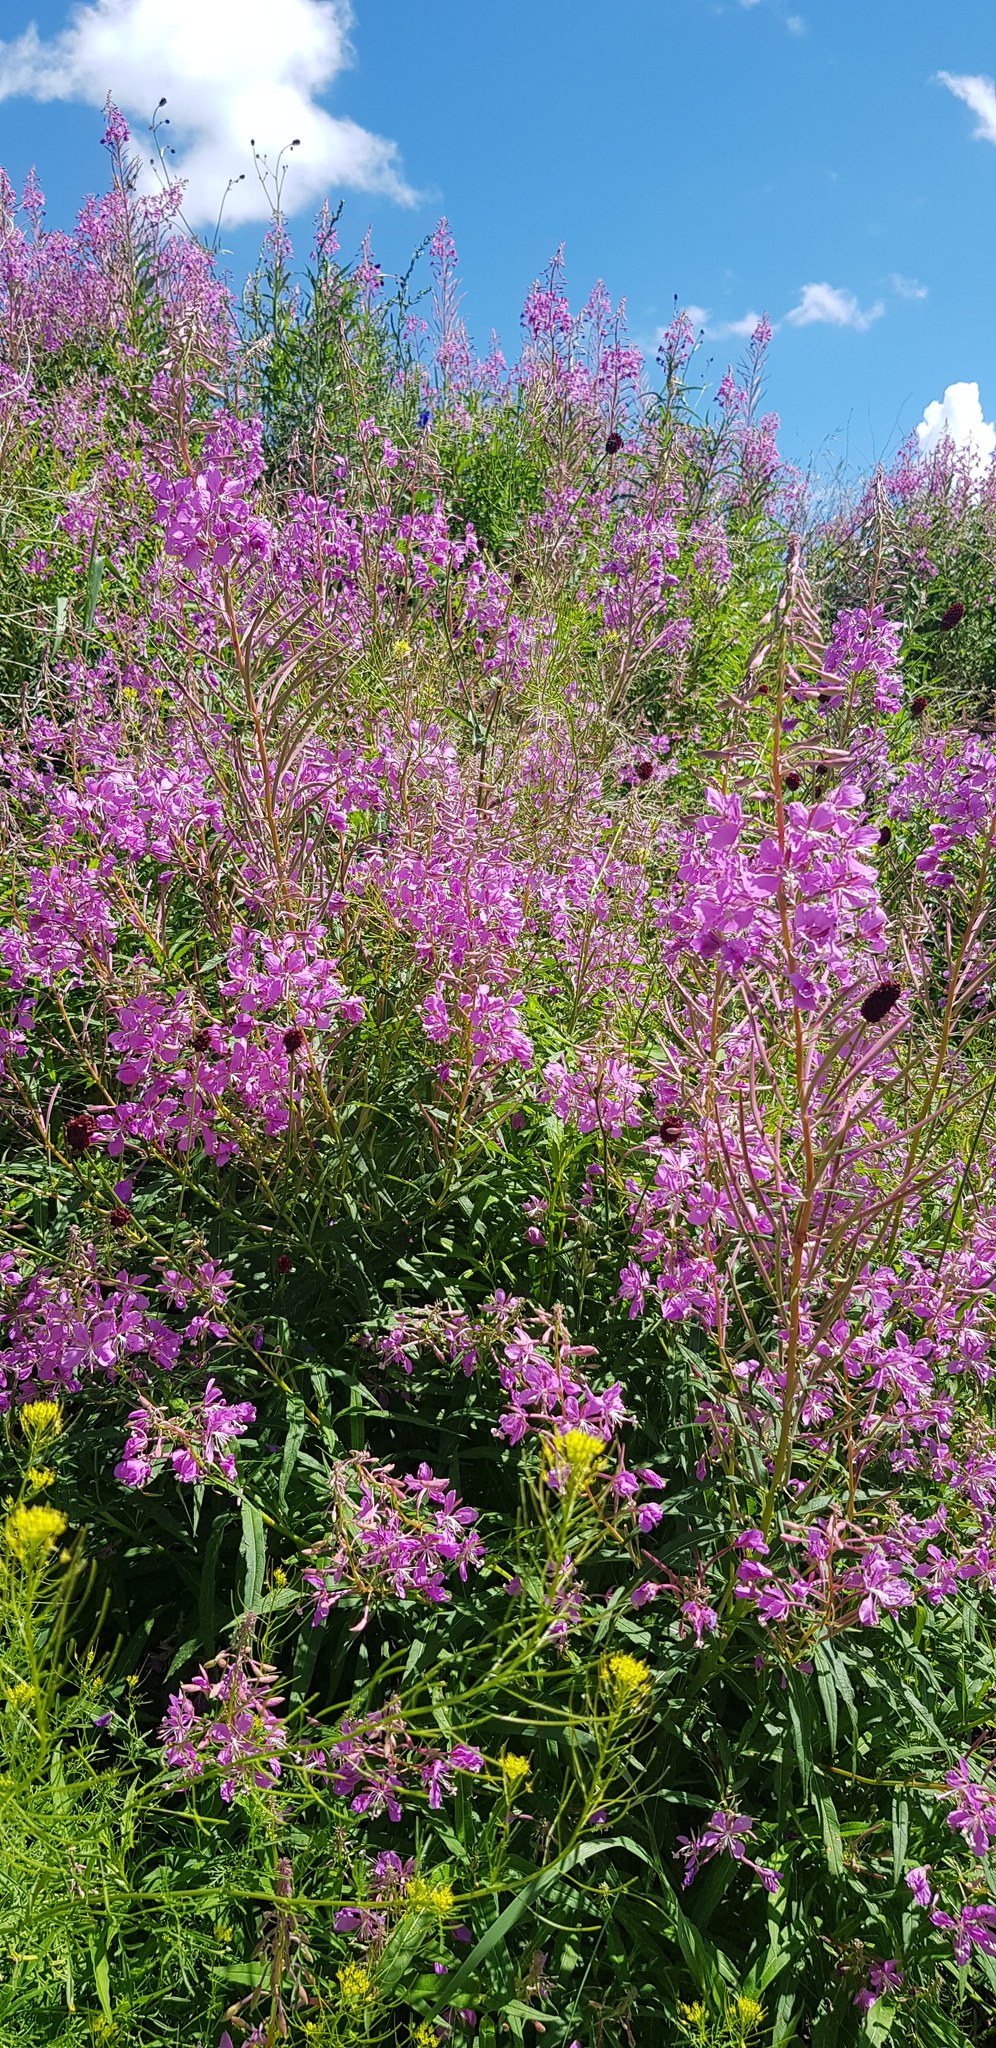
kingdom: Plantae
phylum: Tracheophyta
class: Magnoliopsida
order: Myrtales
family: Onagraceae
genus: Chamaenerion
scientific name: Chamaenerion angustifolium
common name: Fireweed
